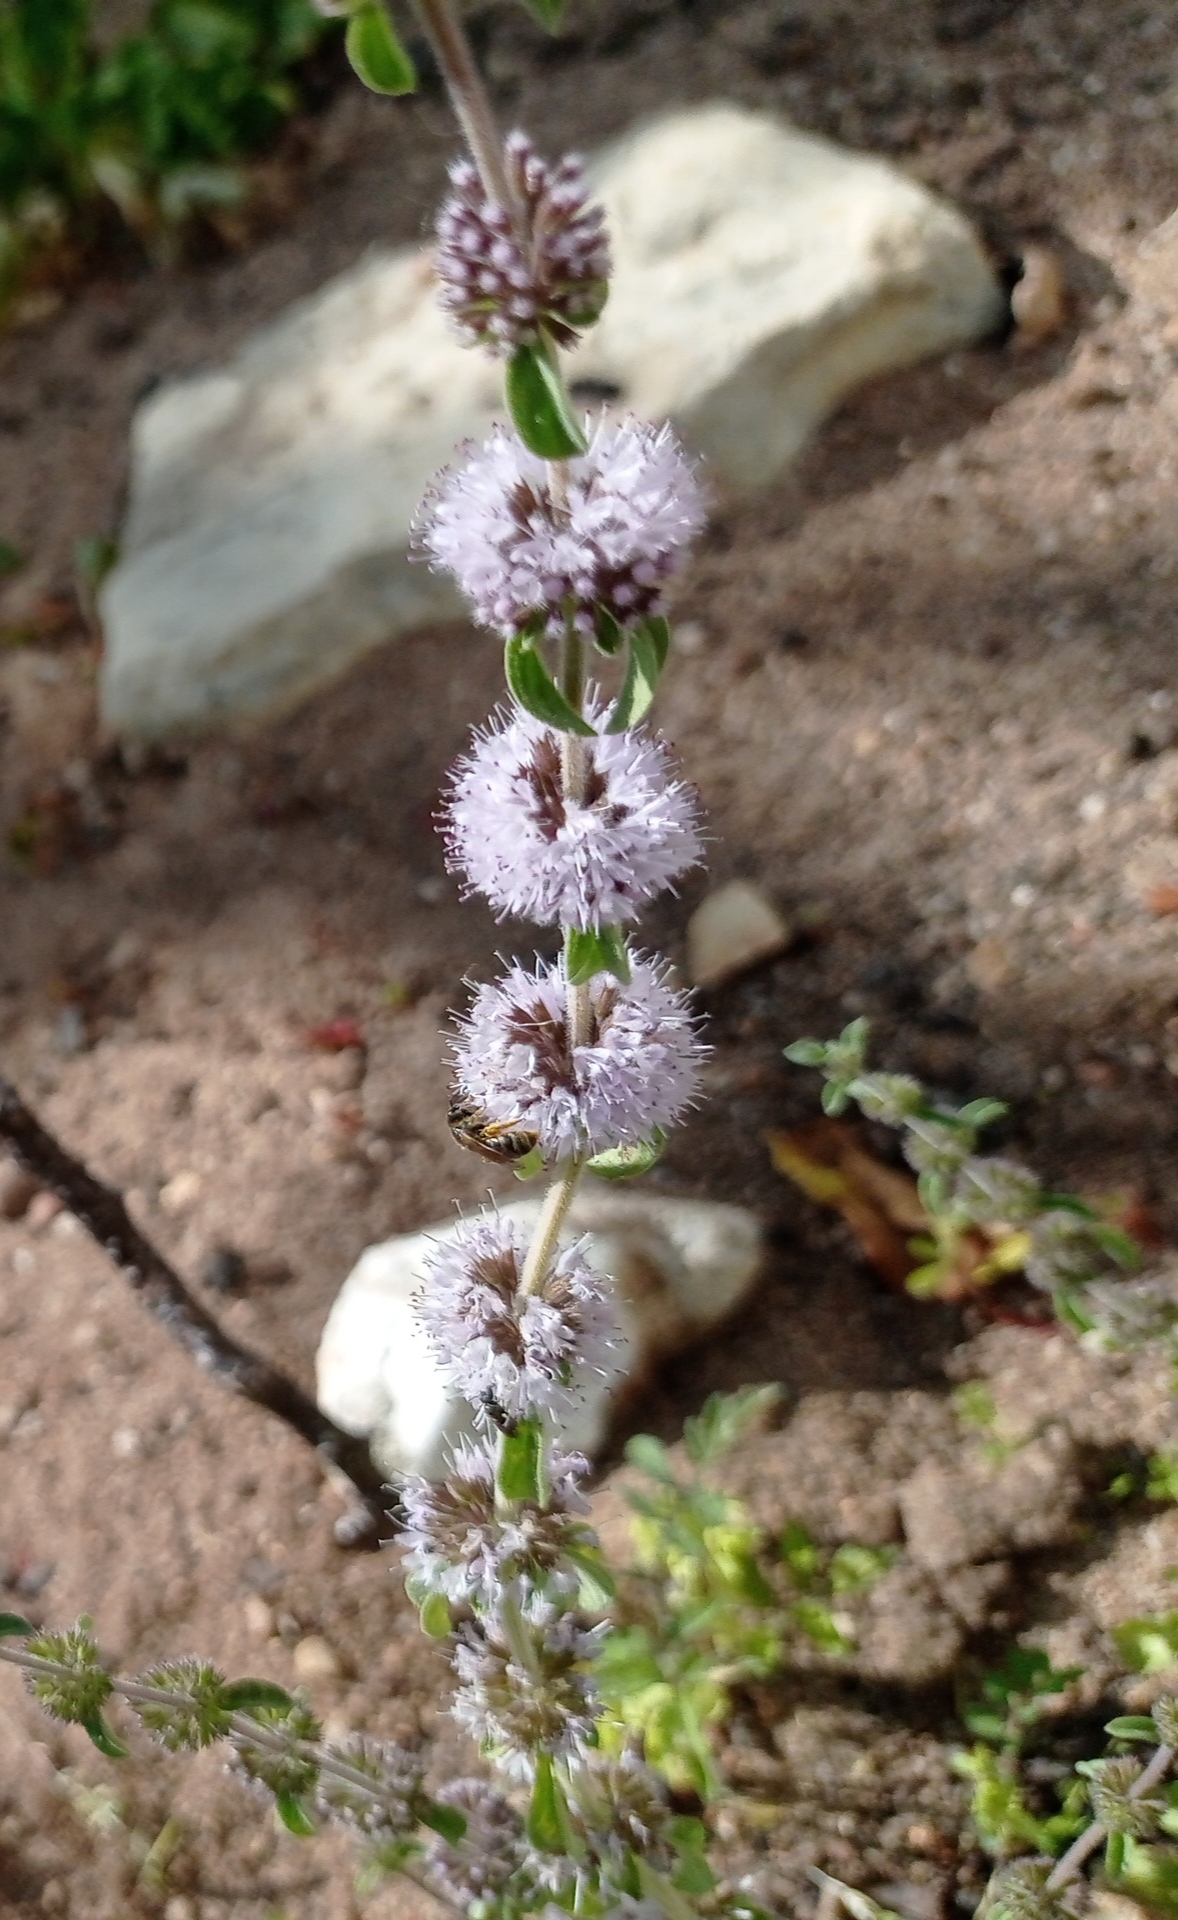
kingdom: Plantae
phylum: Tracheophyta
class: Magnoliopsida
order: Lamiales
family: Lamiaceae
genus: Mentha
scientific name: Mentha pulegium
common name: Pennyroyal
